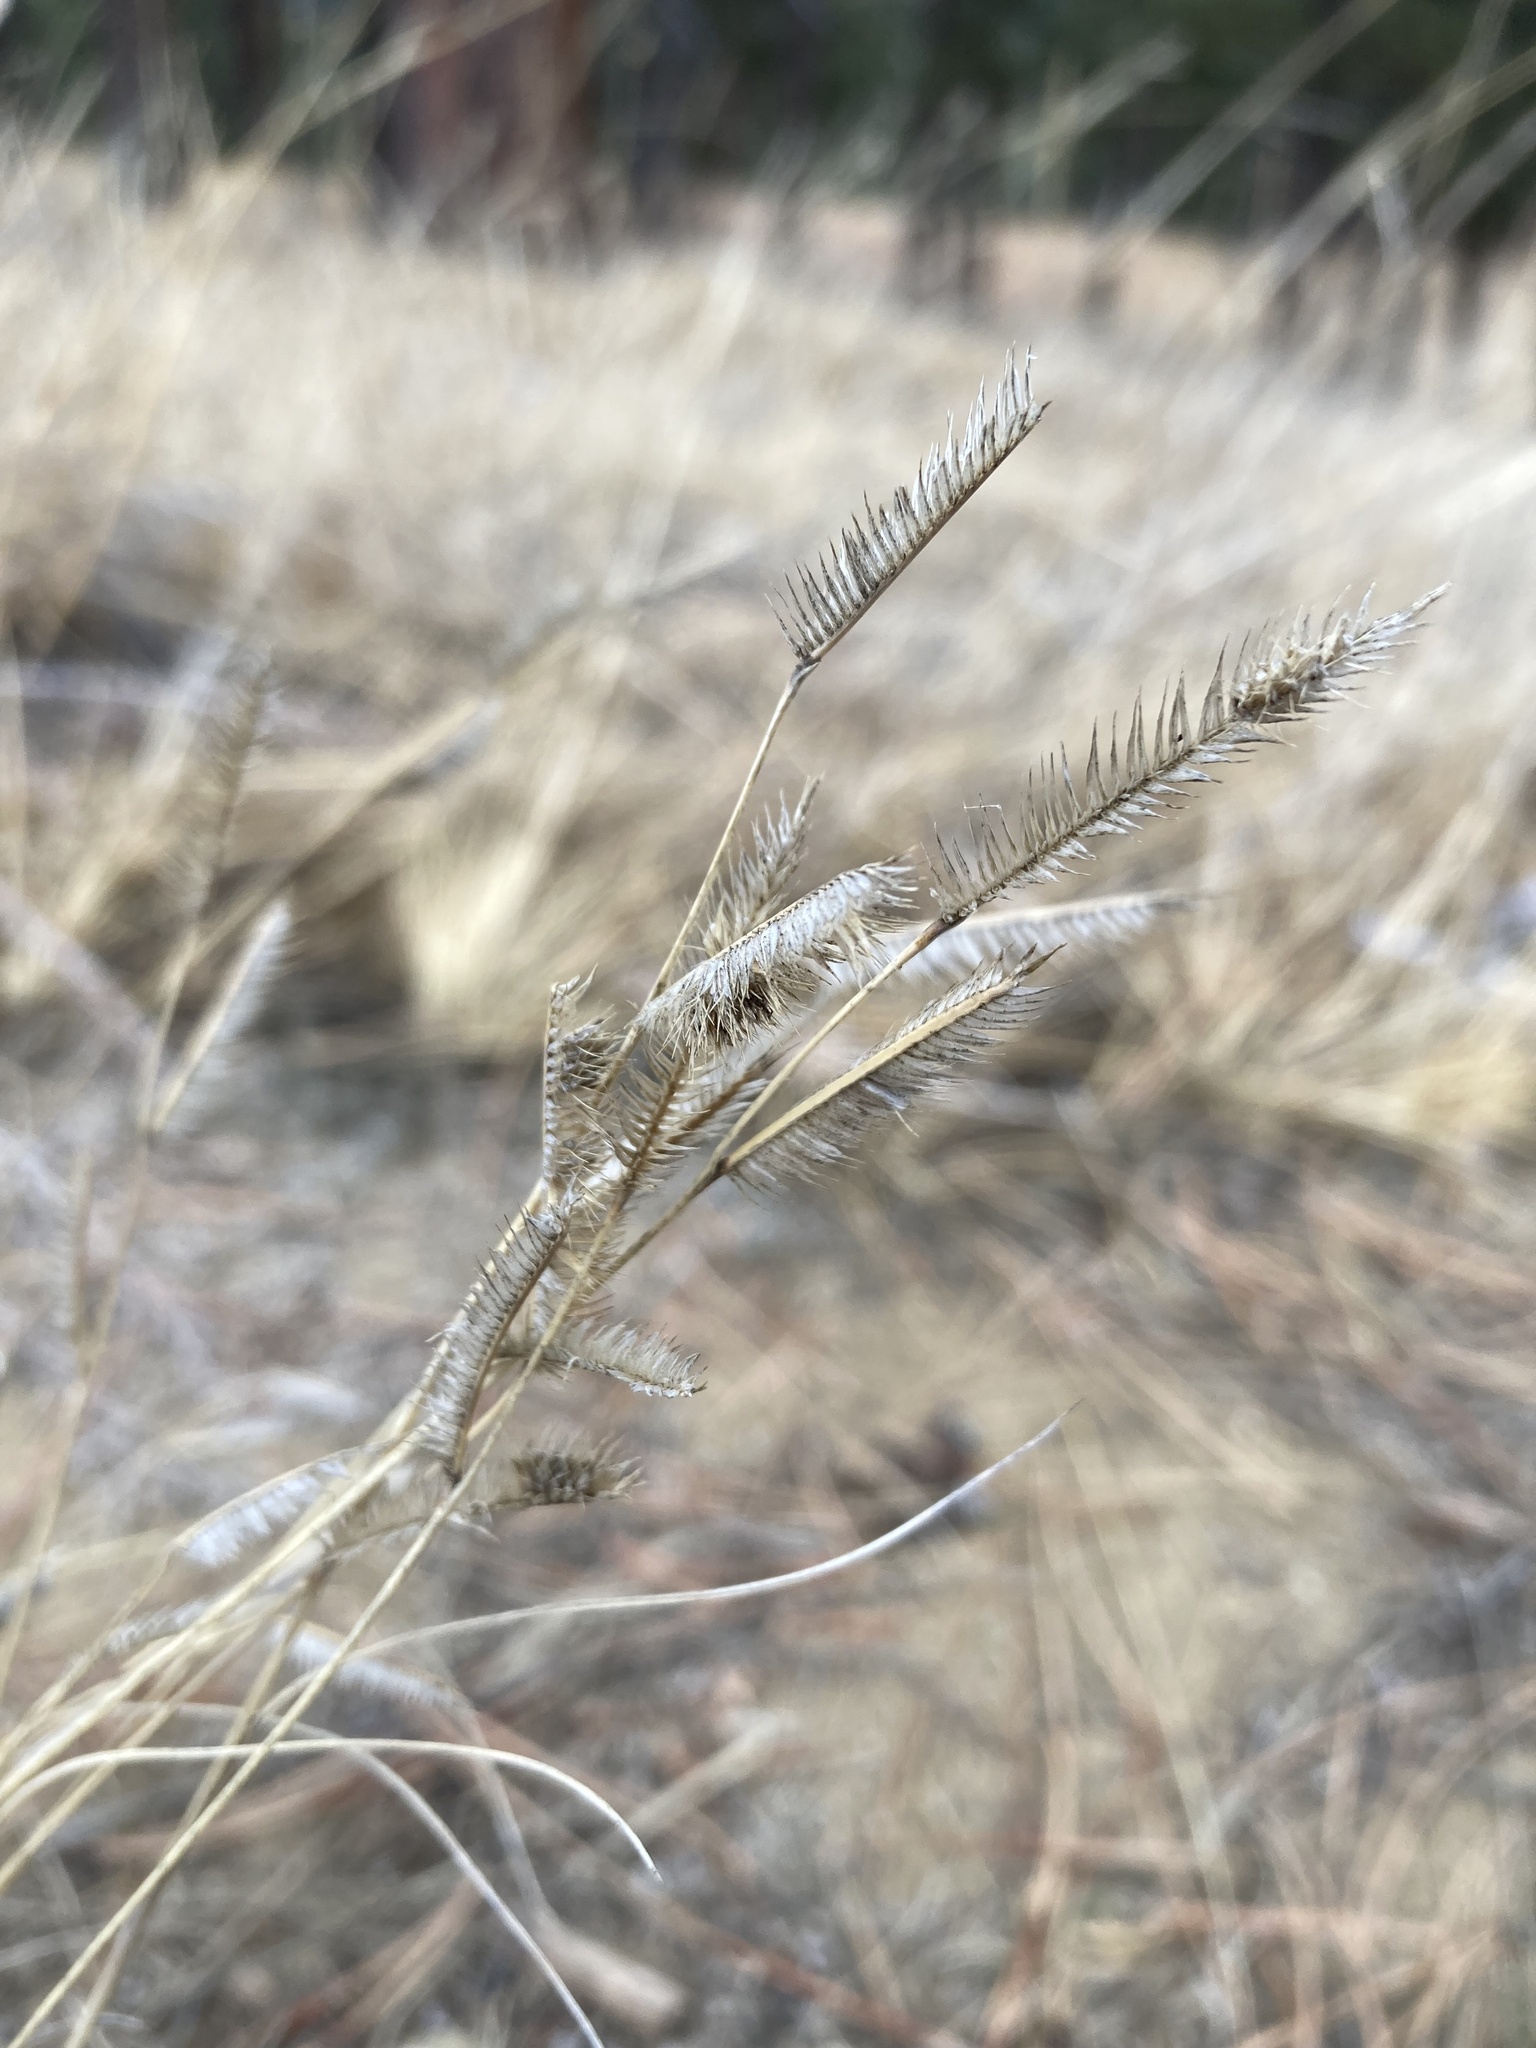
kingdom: Plantae
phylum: Tracheophyta
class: Liliopsida
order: Poales
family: Poaceae
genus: Bouteloua
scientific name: Bouteloua gracilis
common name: Blue grama
